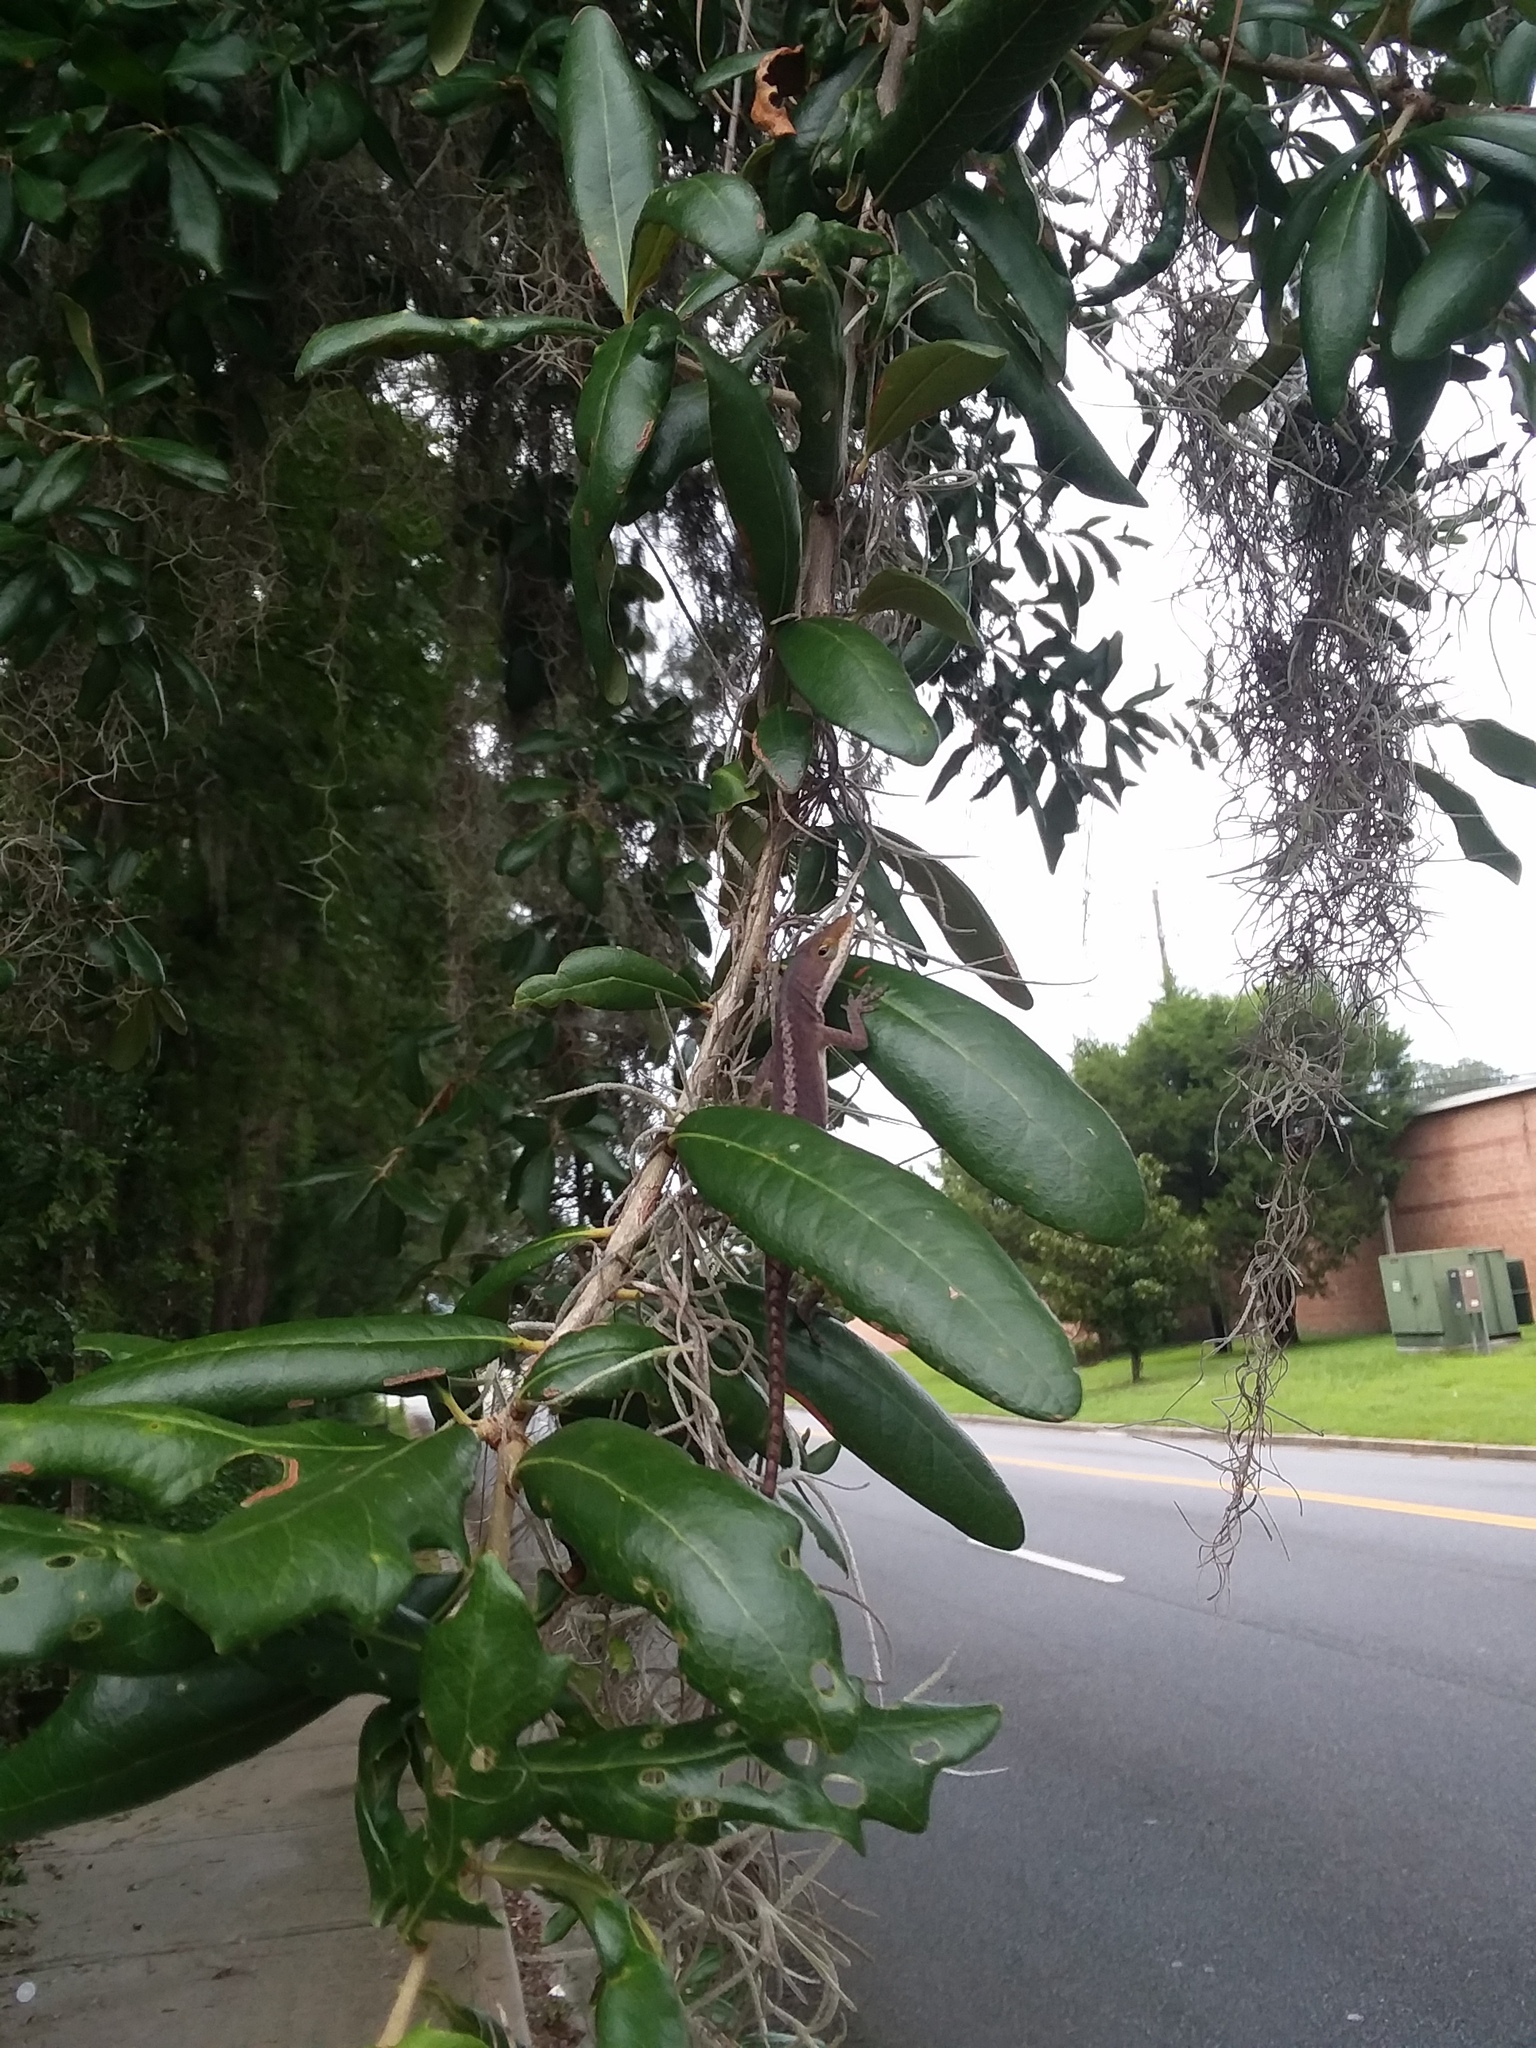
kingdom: Animalia
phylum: Chordata
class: Squamata
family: Dactyloidae
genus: Anolis
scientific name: Anolis carolinensis
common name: Green anole
